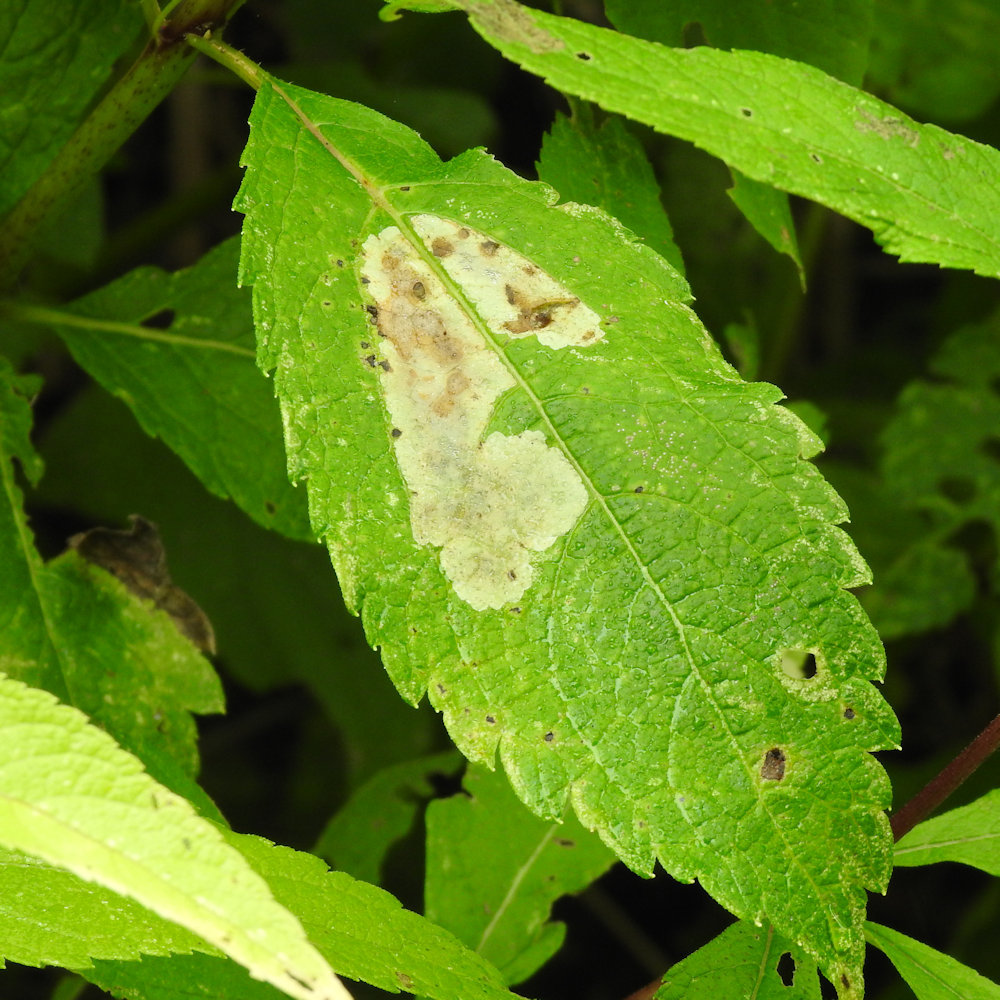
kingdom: Animalia
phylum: Arthropoda
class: Insecta
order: Diptera
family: Agromyzidae
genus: Calycomyza
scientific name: Calycomyza flavinotum
